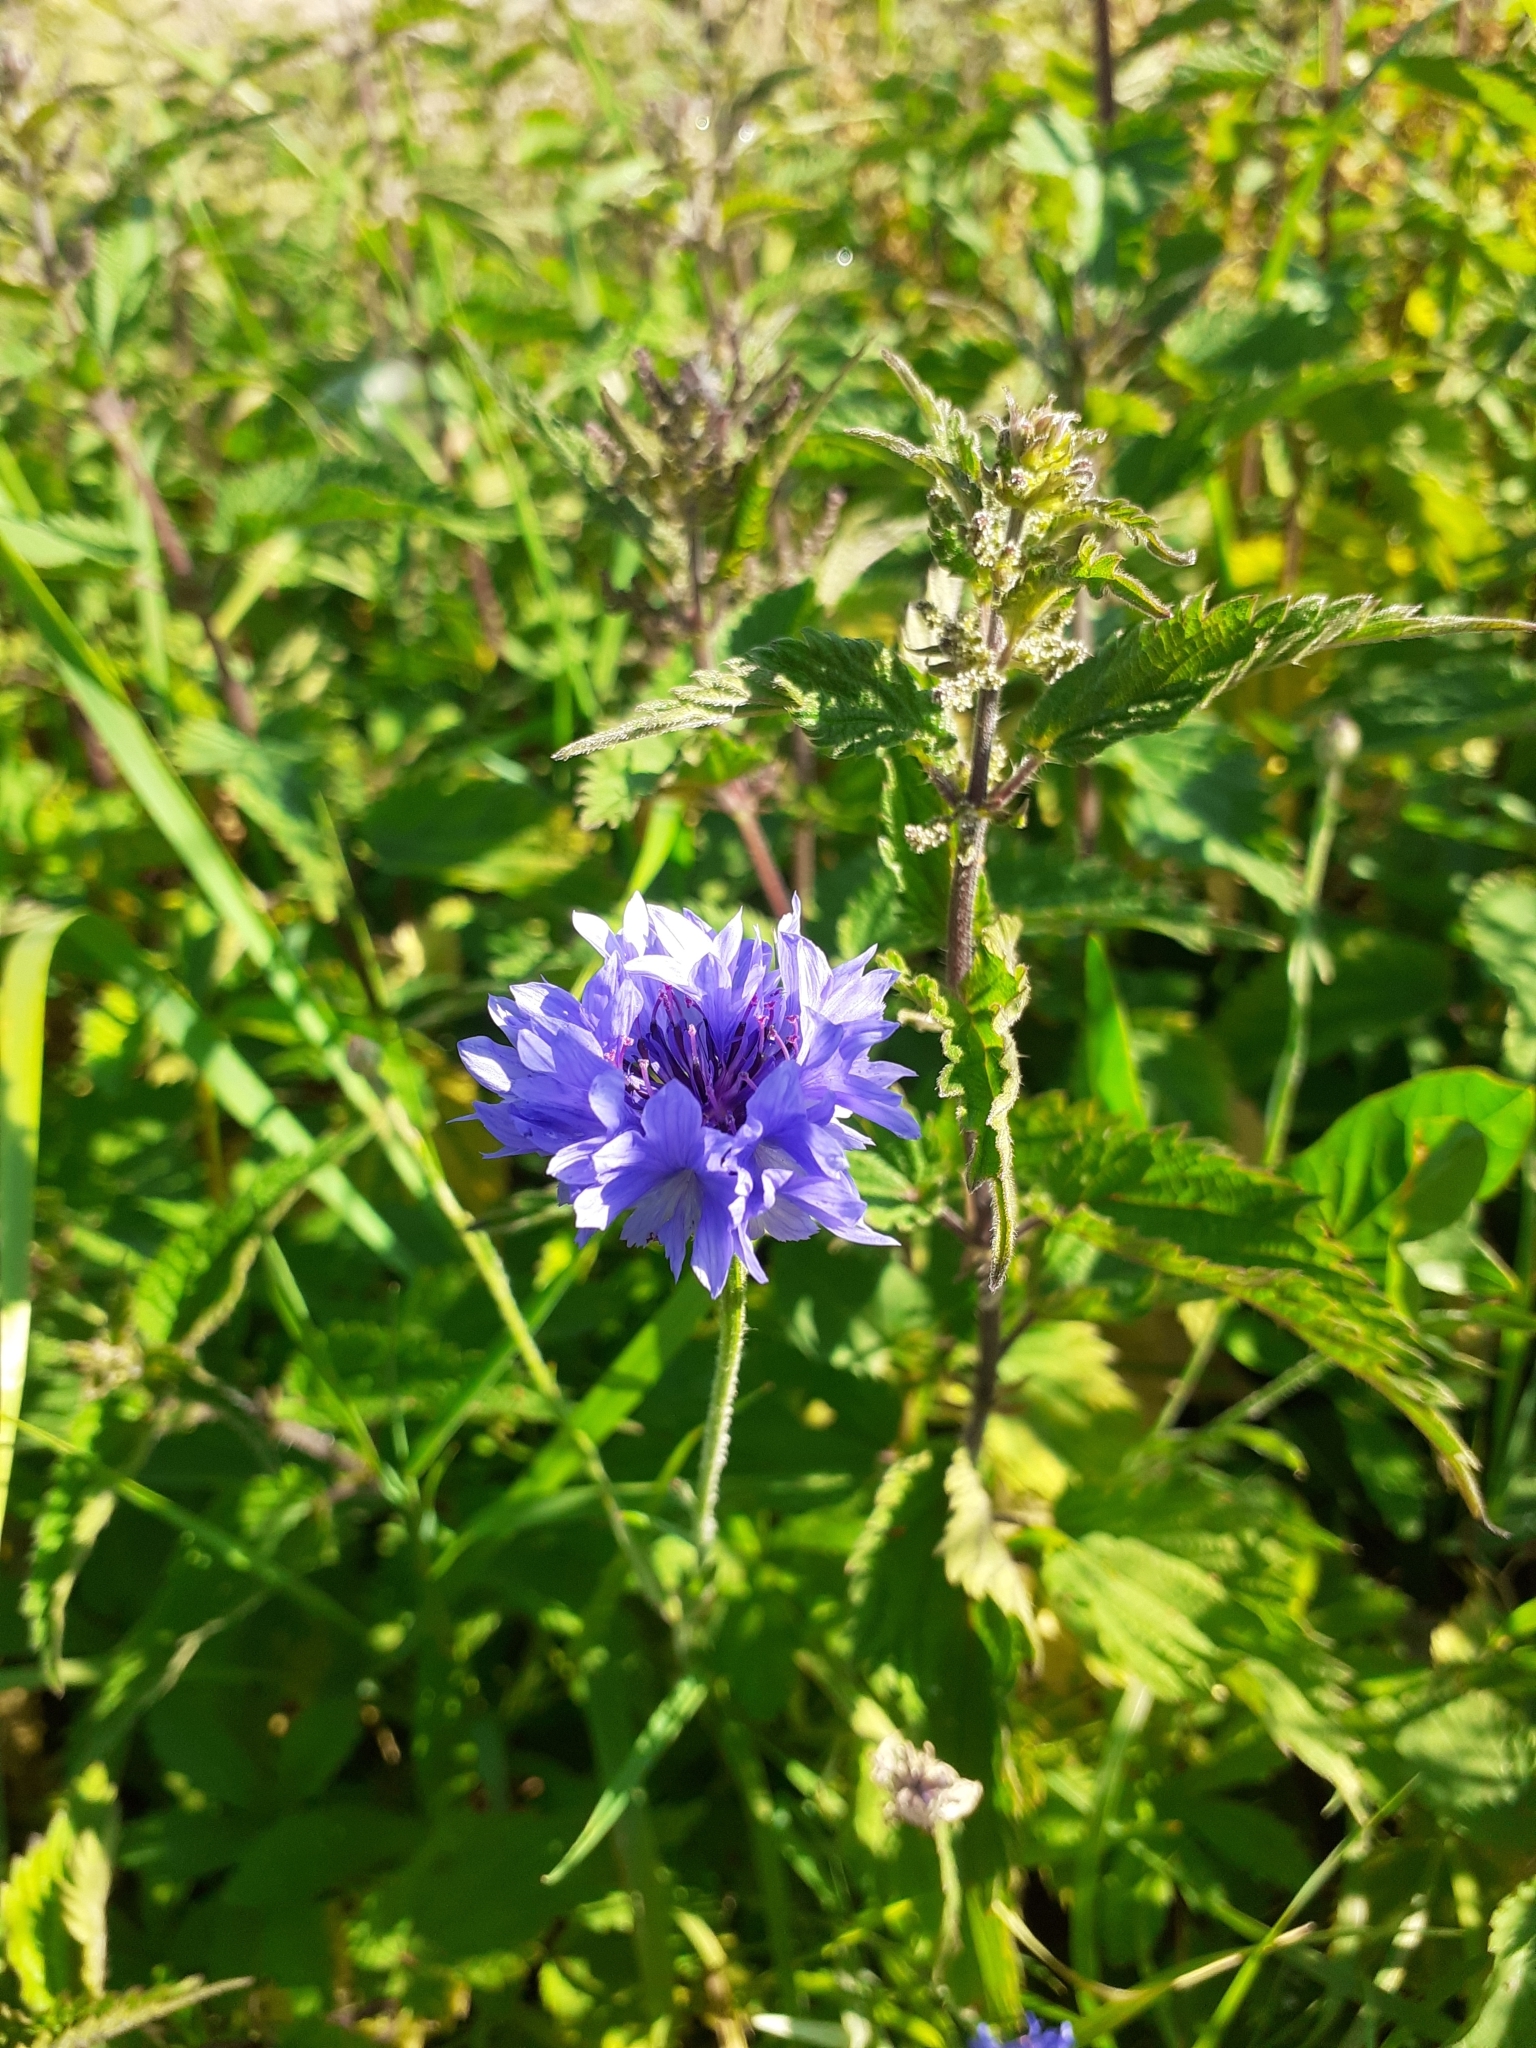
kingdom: Plantae
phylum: Tracheophyta
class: Magnoliopsida
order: Asterales
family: Asteraceae
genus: Centaurea
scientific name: Centaurea cyanus
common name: Cornflower
